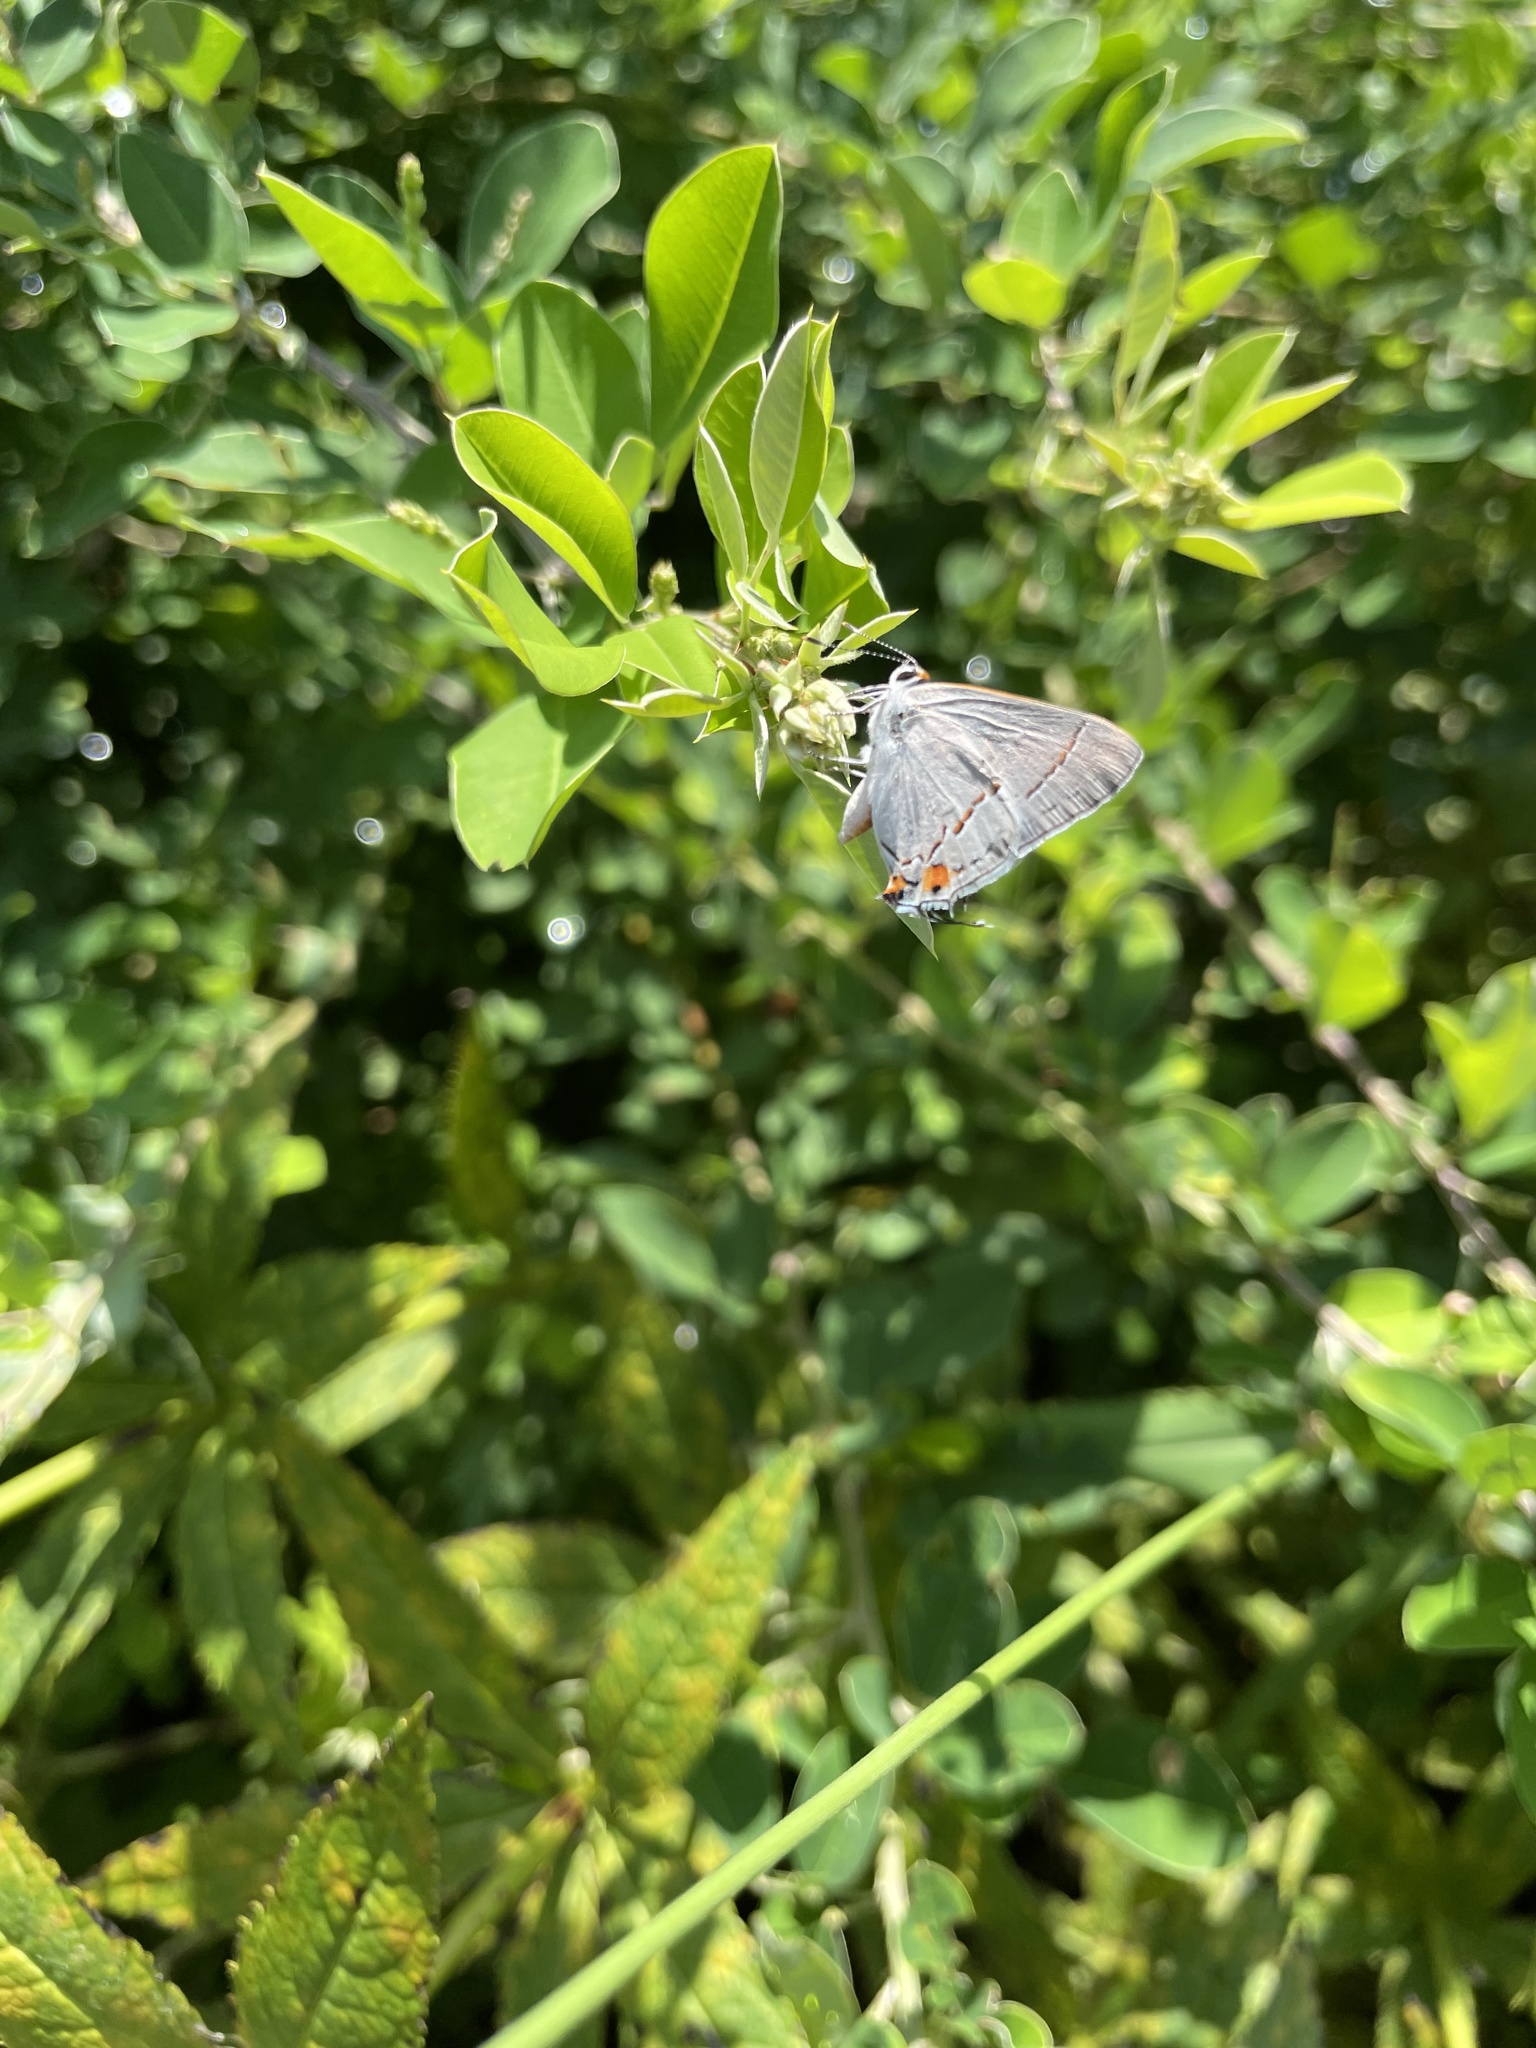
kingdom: Animalia
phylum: Arthropoda
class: Insecta
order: Lepidoptera
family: Lycaenidae
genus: Strymon
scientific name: Strymon melinus
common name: Gray hairstreak
